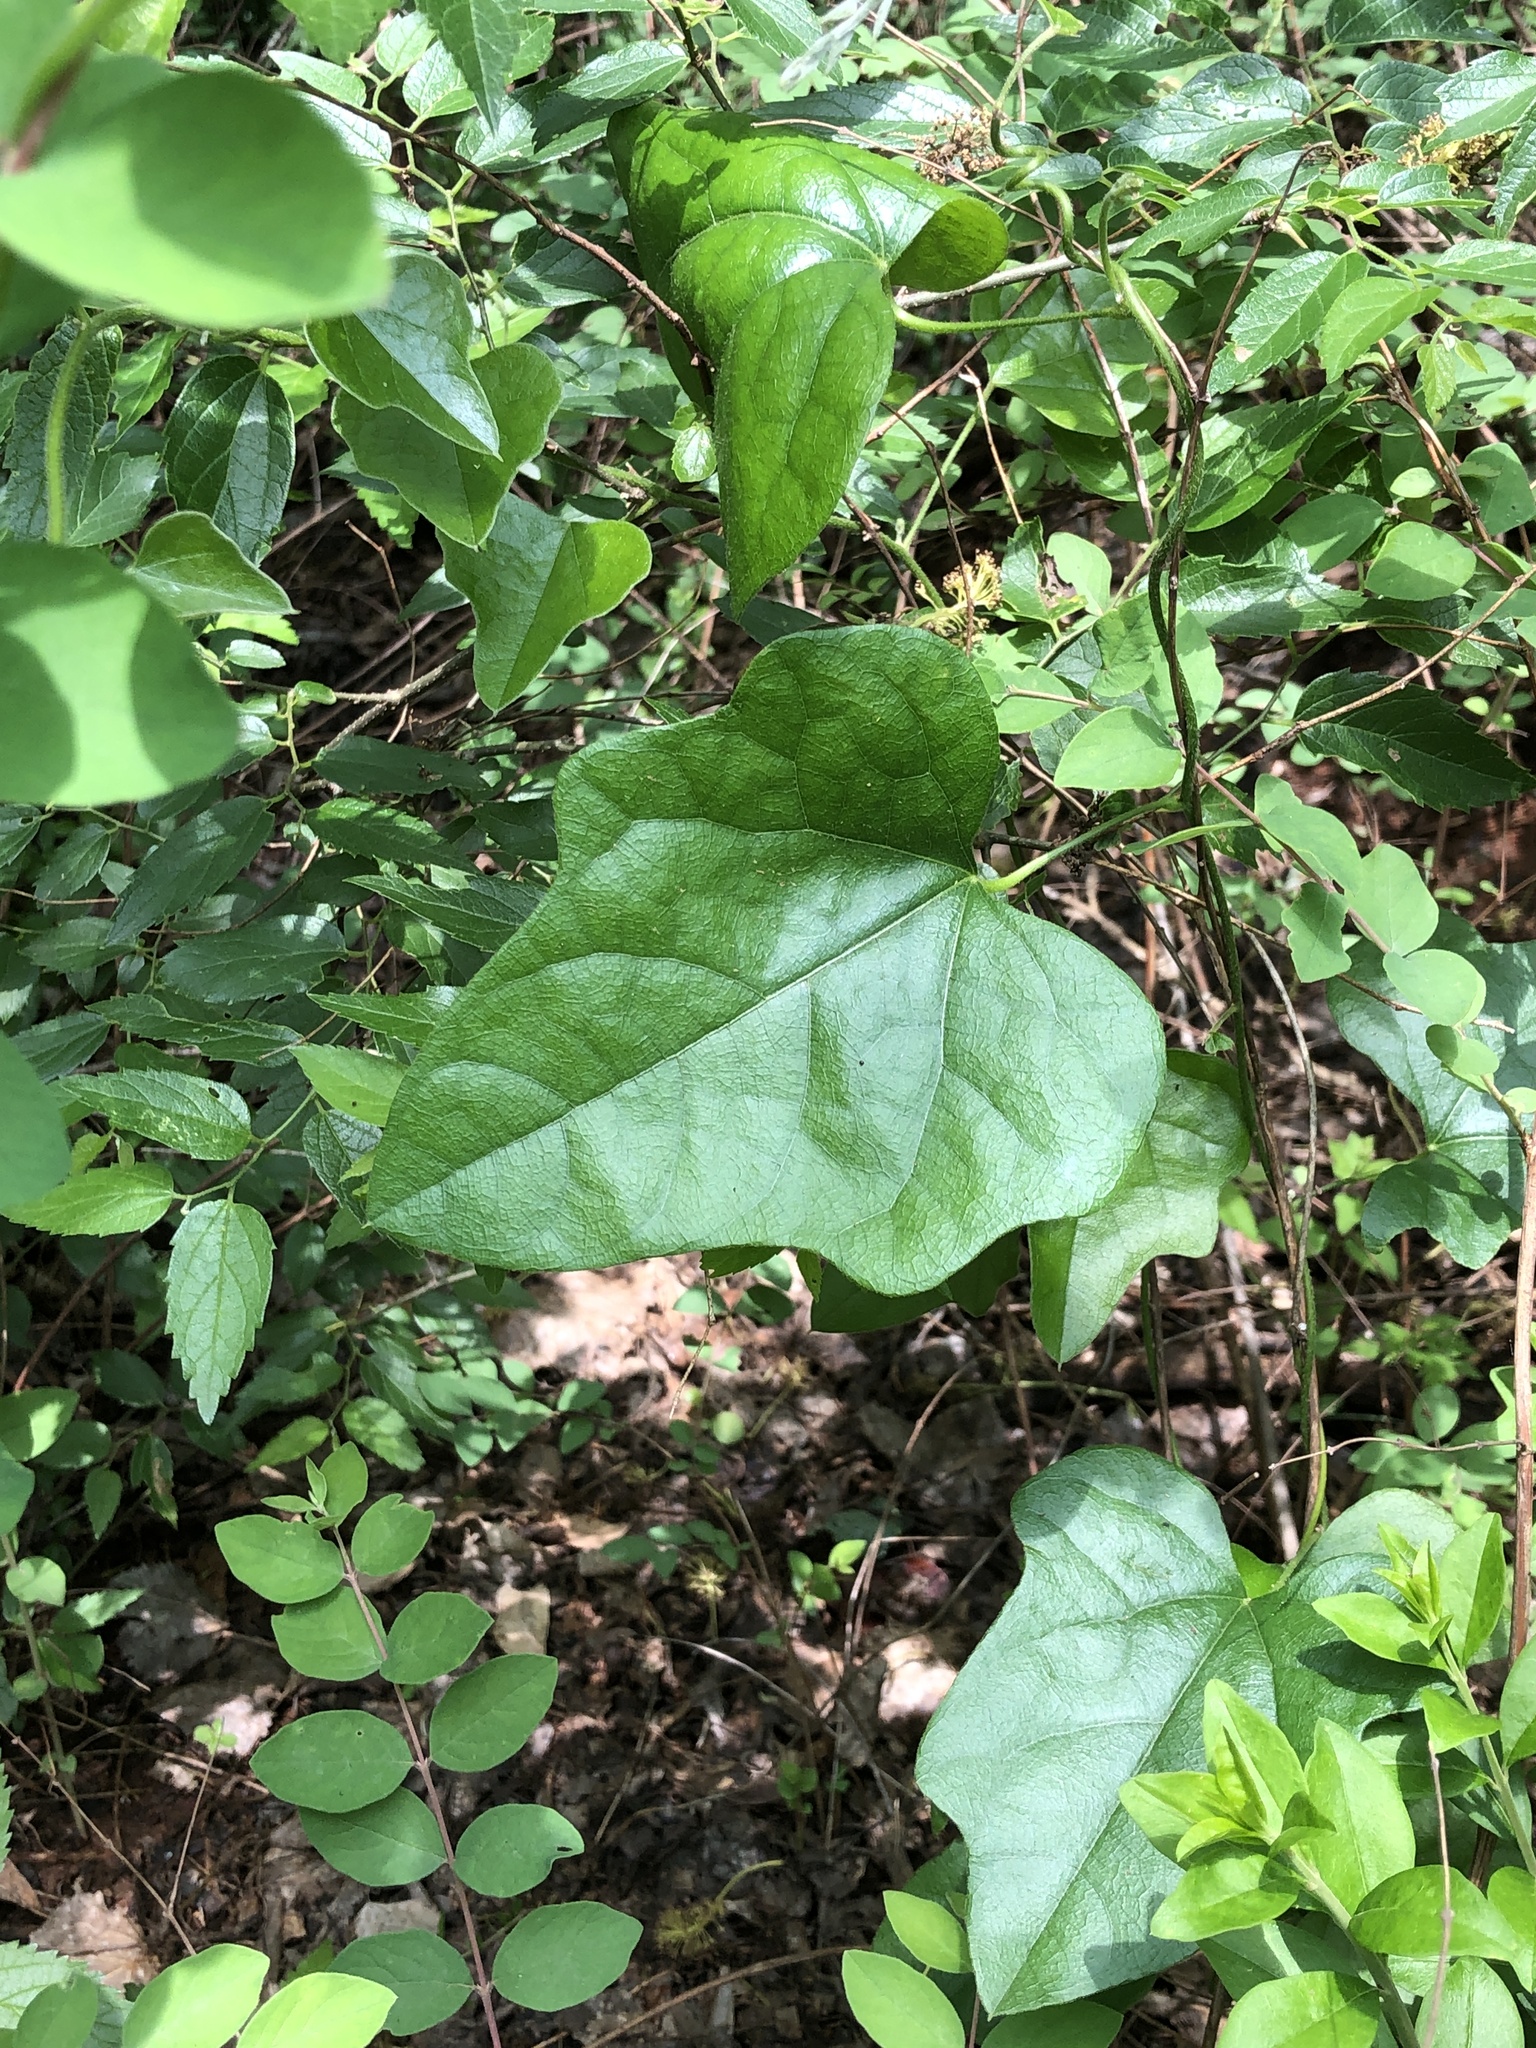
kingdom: Plantae
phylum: Tracheophyta
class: Magnoliopsida
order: Ranunculales
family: Menispermaceae
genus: Cocculus
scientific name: Cocculus carolinus
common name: Carolina moonseed
